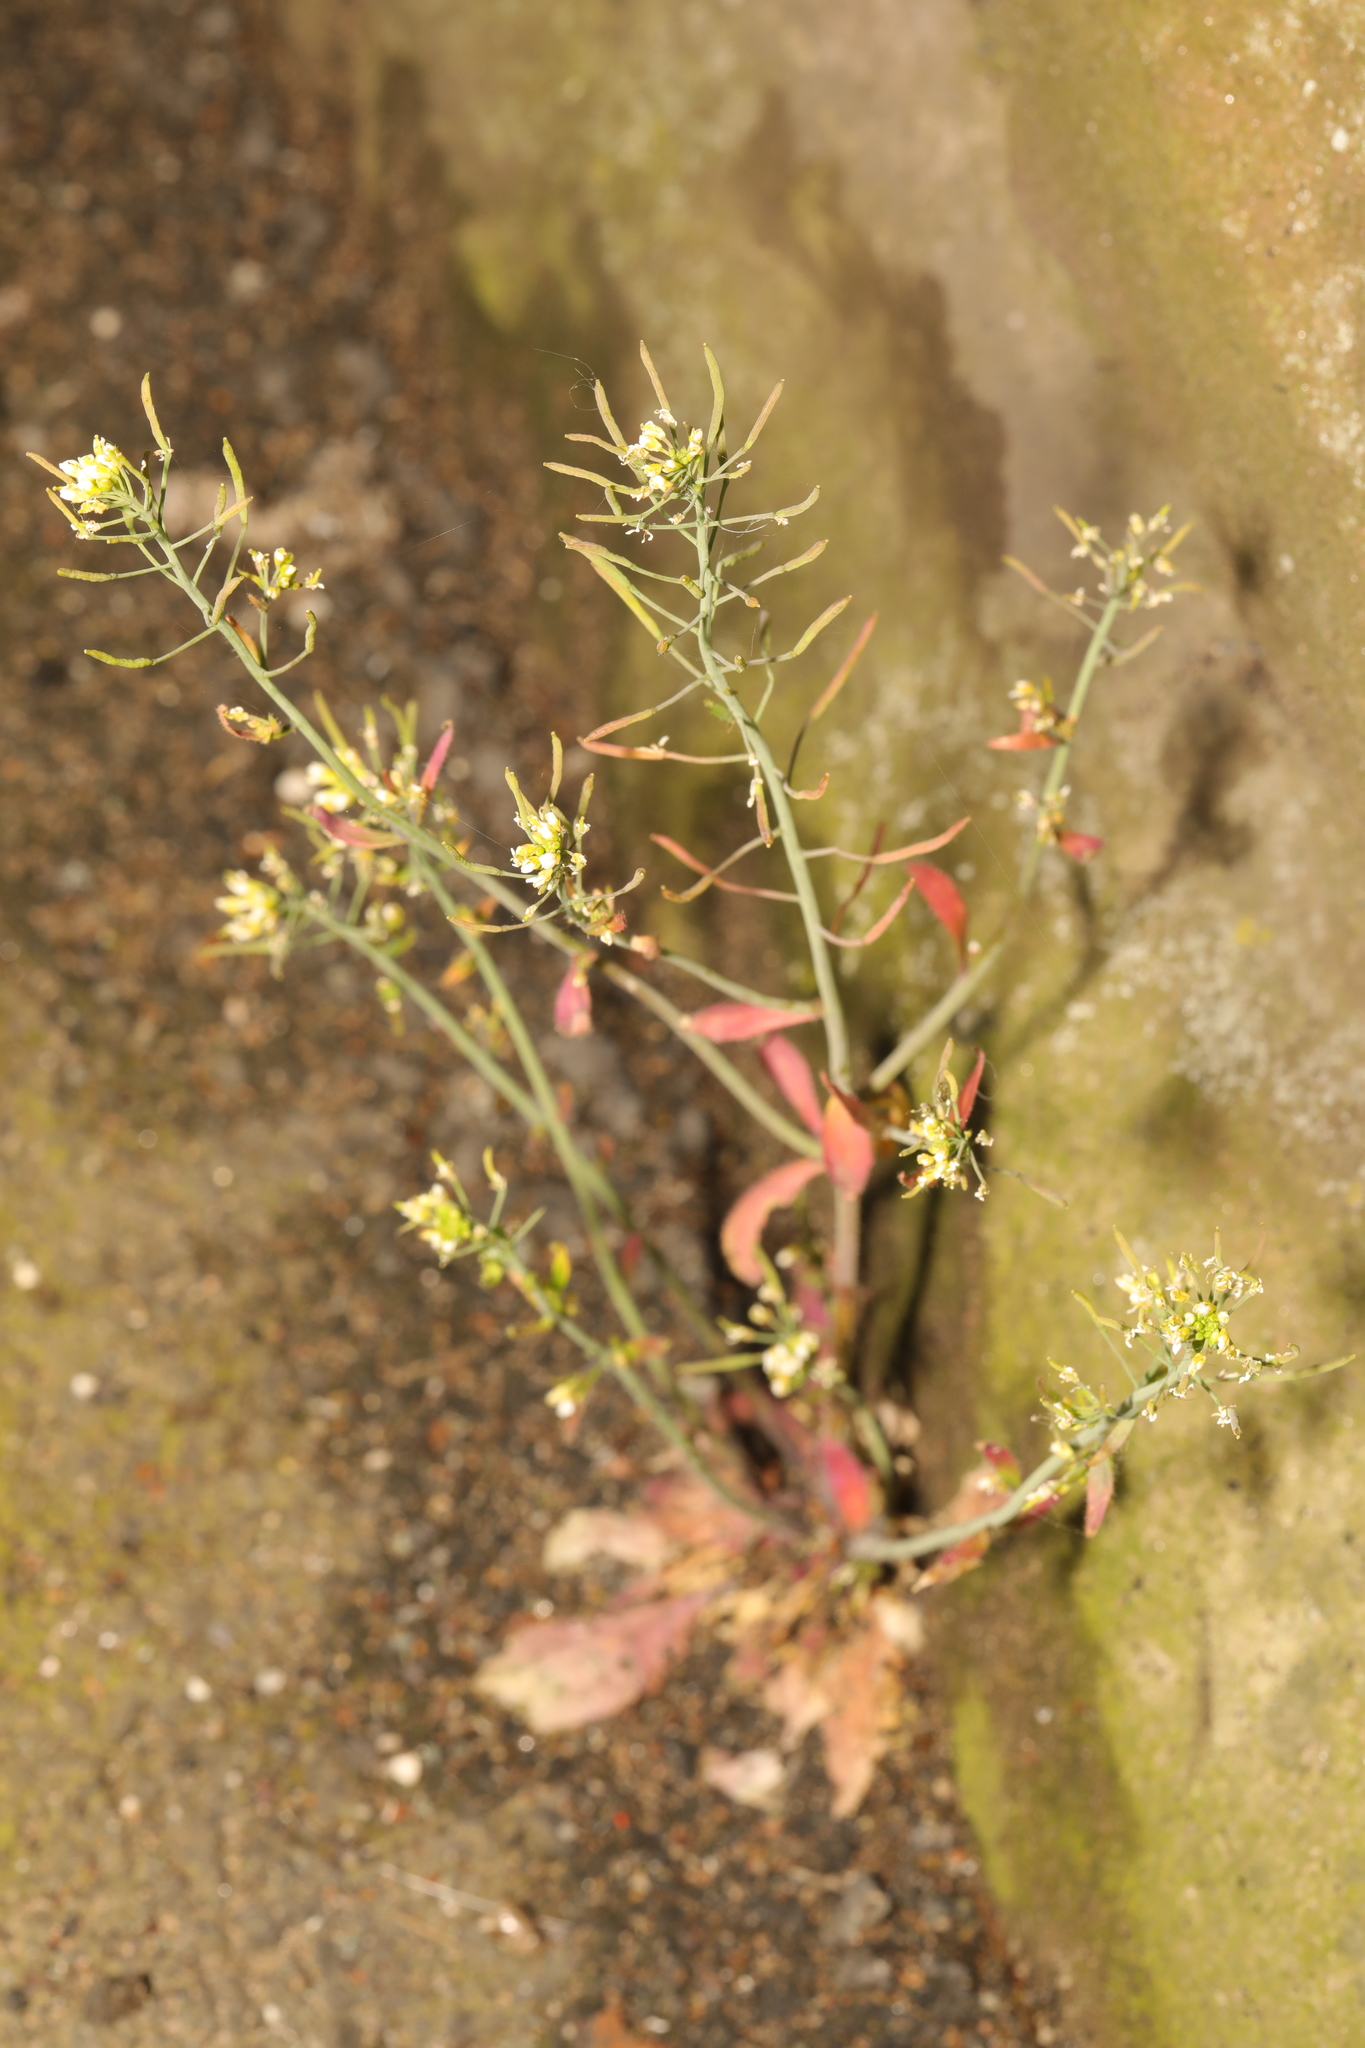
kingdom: Plantae
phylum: Tracheophyta
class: Magnoliopsida
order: Brassicales
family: Brassicaceae
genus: Arabidopsis
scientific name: Arabidopsis thaliana
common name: Thale cress
